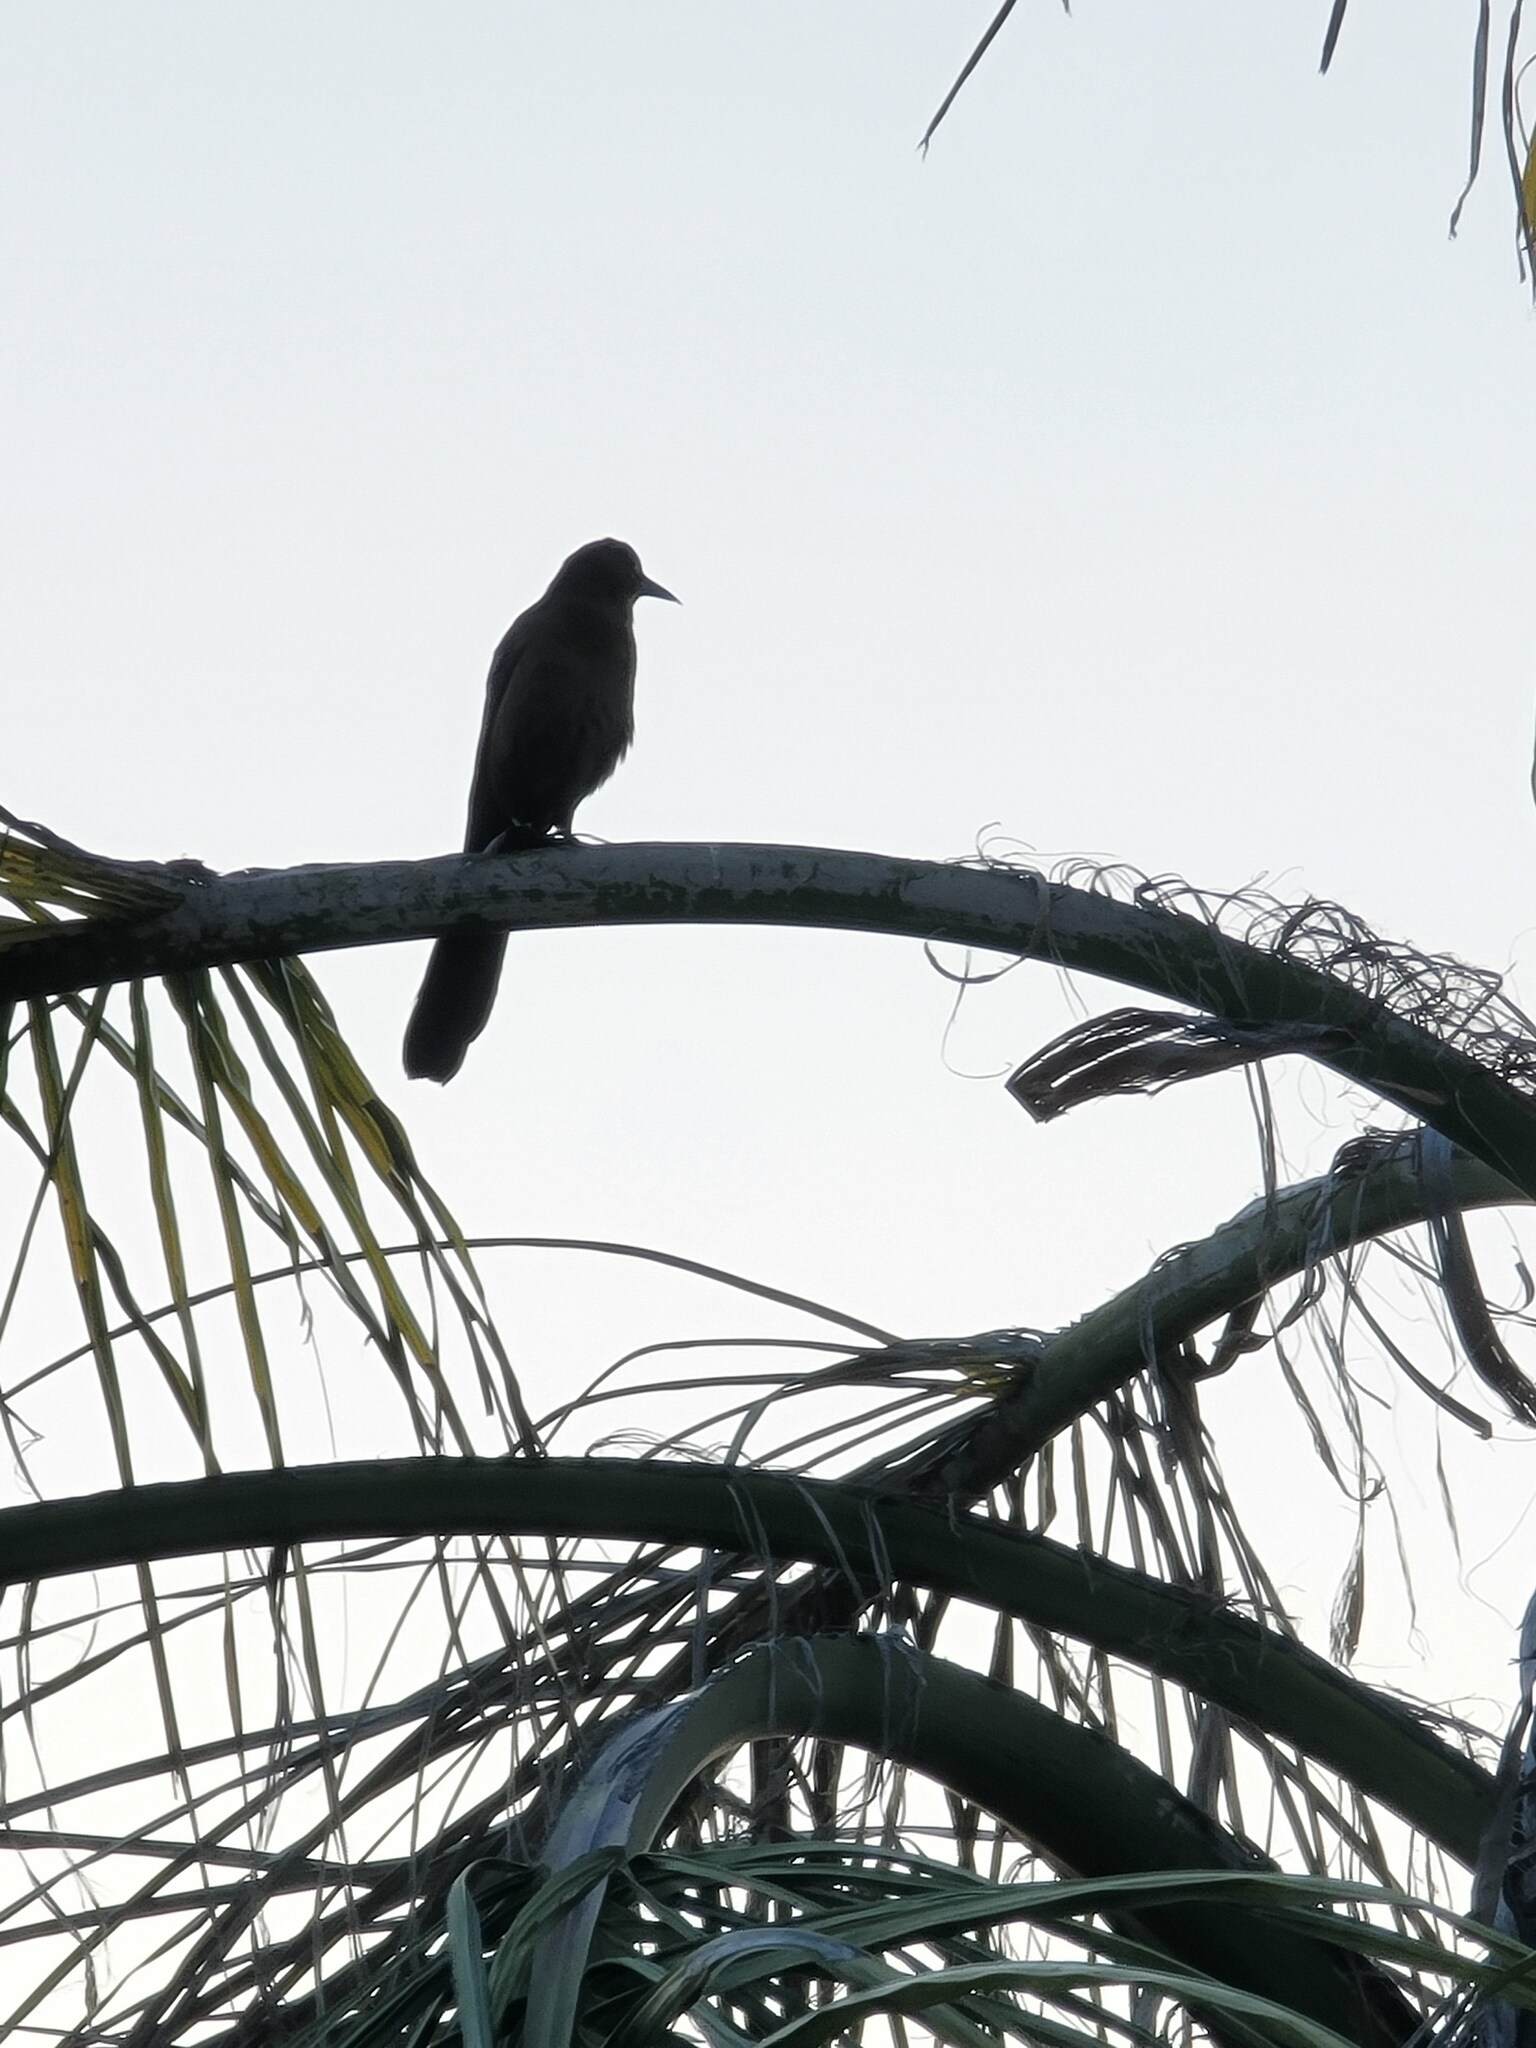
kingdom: Animalia
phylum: Chordata
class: Aves
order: Passeriformes
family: Icteridae
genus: Quiscalus
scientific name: Quiscalus mexicanus
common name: Great-tailed grackle
